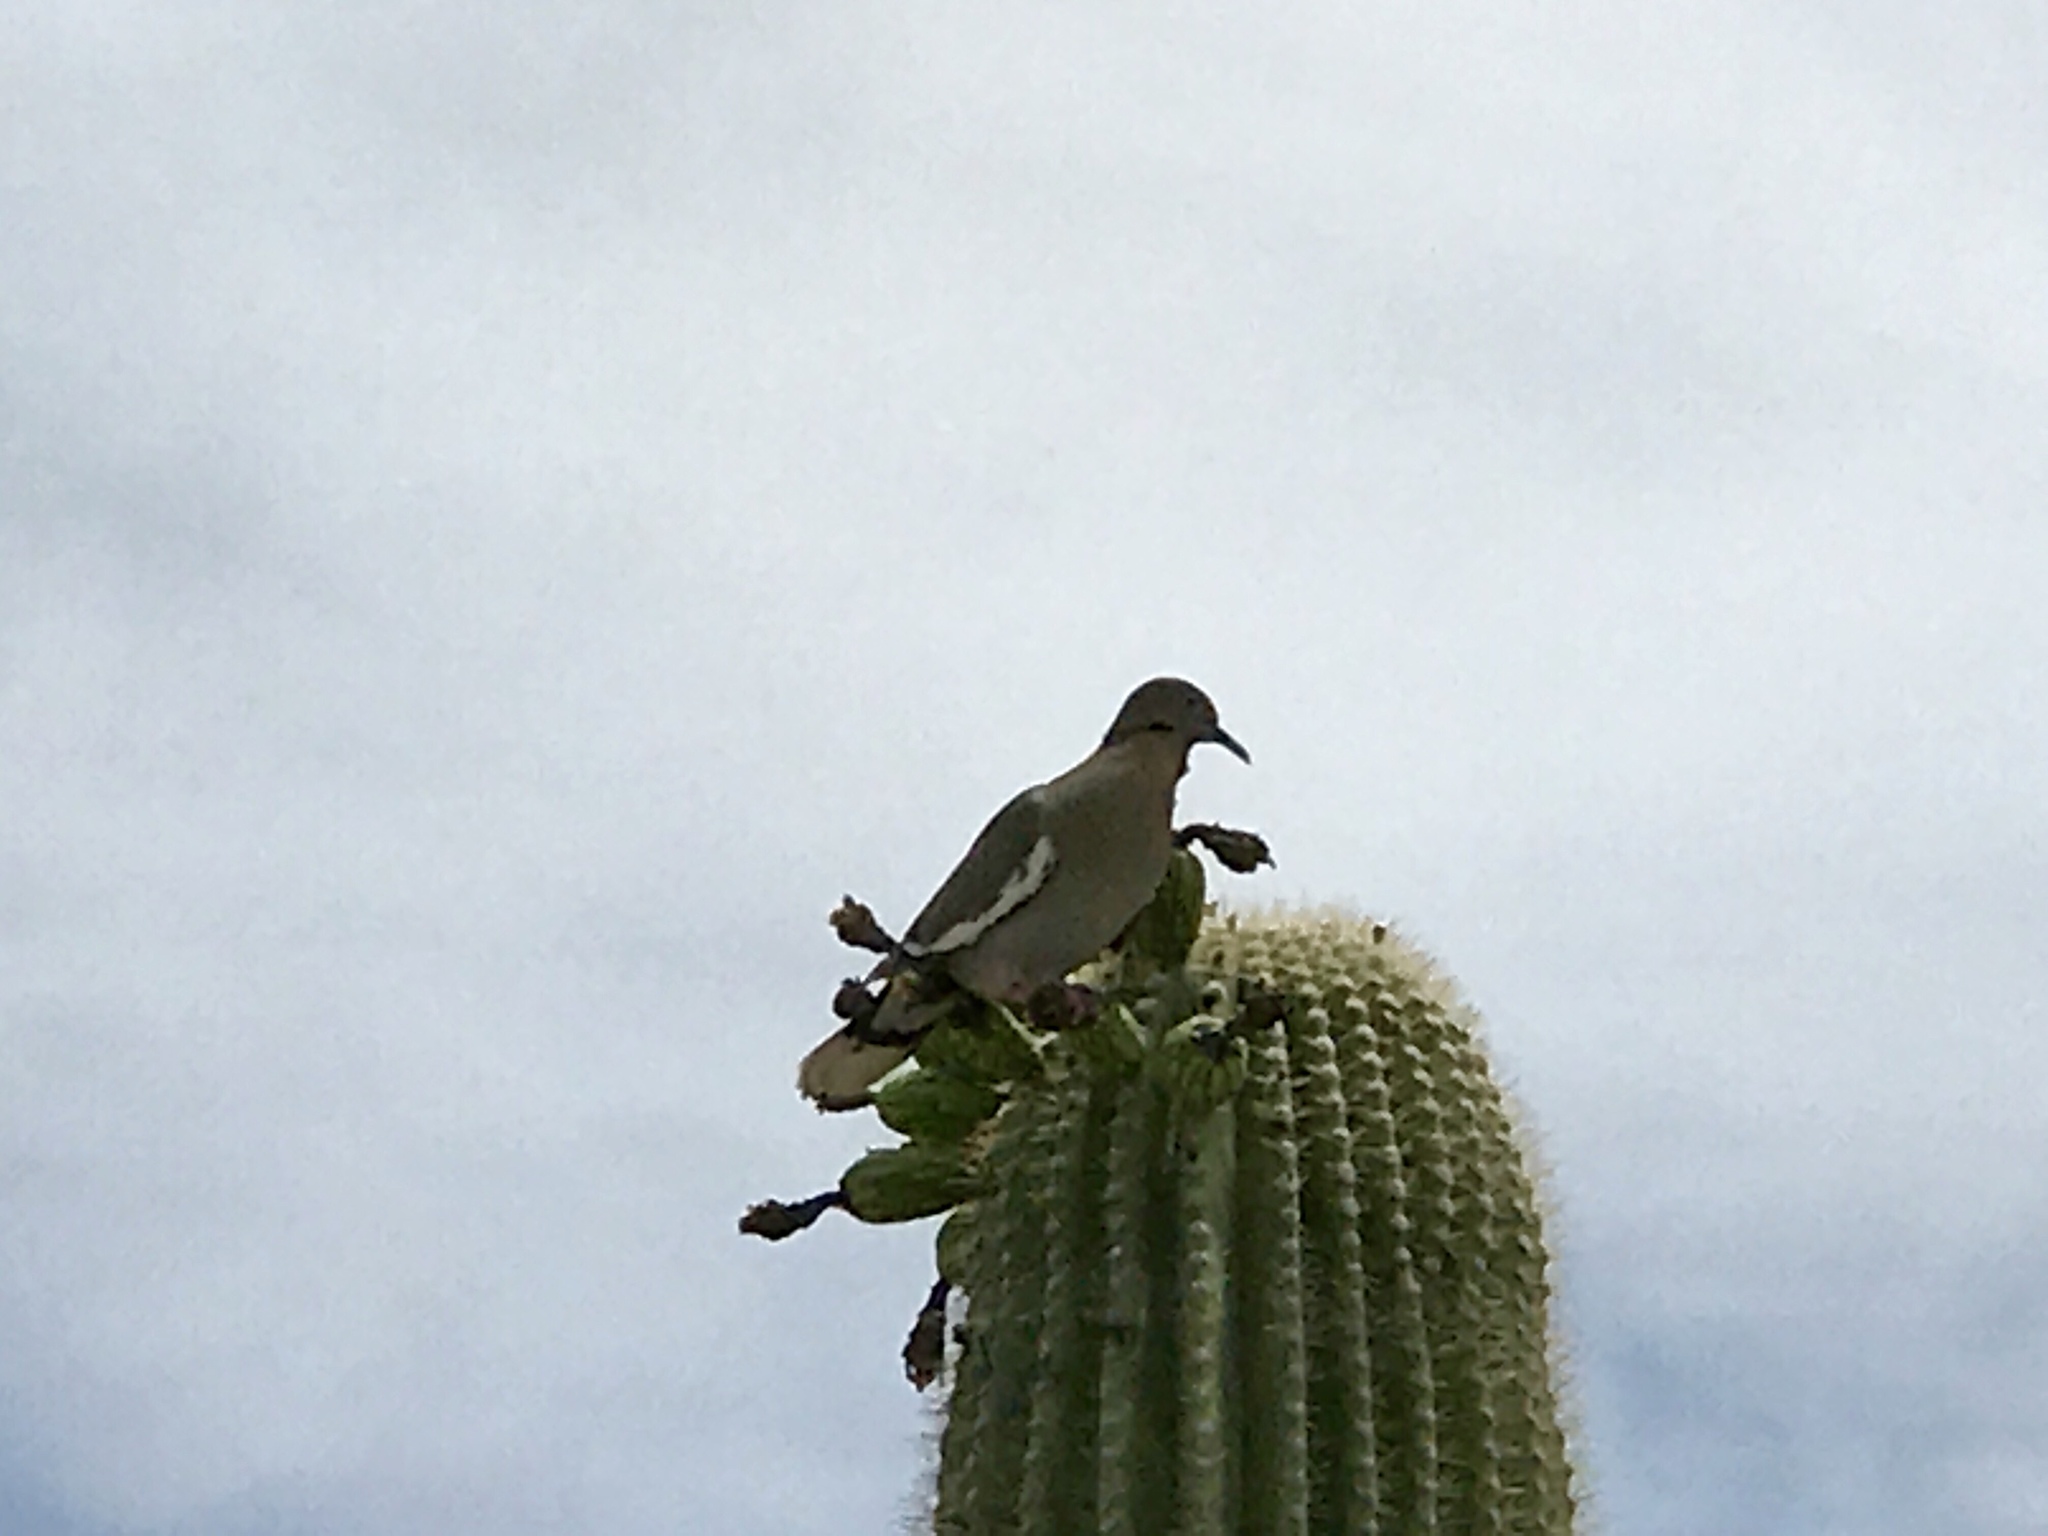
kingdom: Animalia
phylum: Chordata
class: Aves
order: Columbiformes
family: Columbidae
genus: Zenaida
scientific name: Zenaida asiatica
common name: White-winged dove
